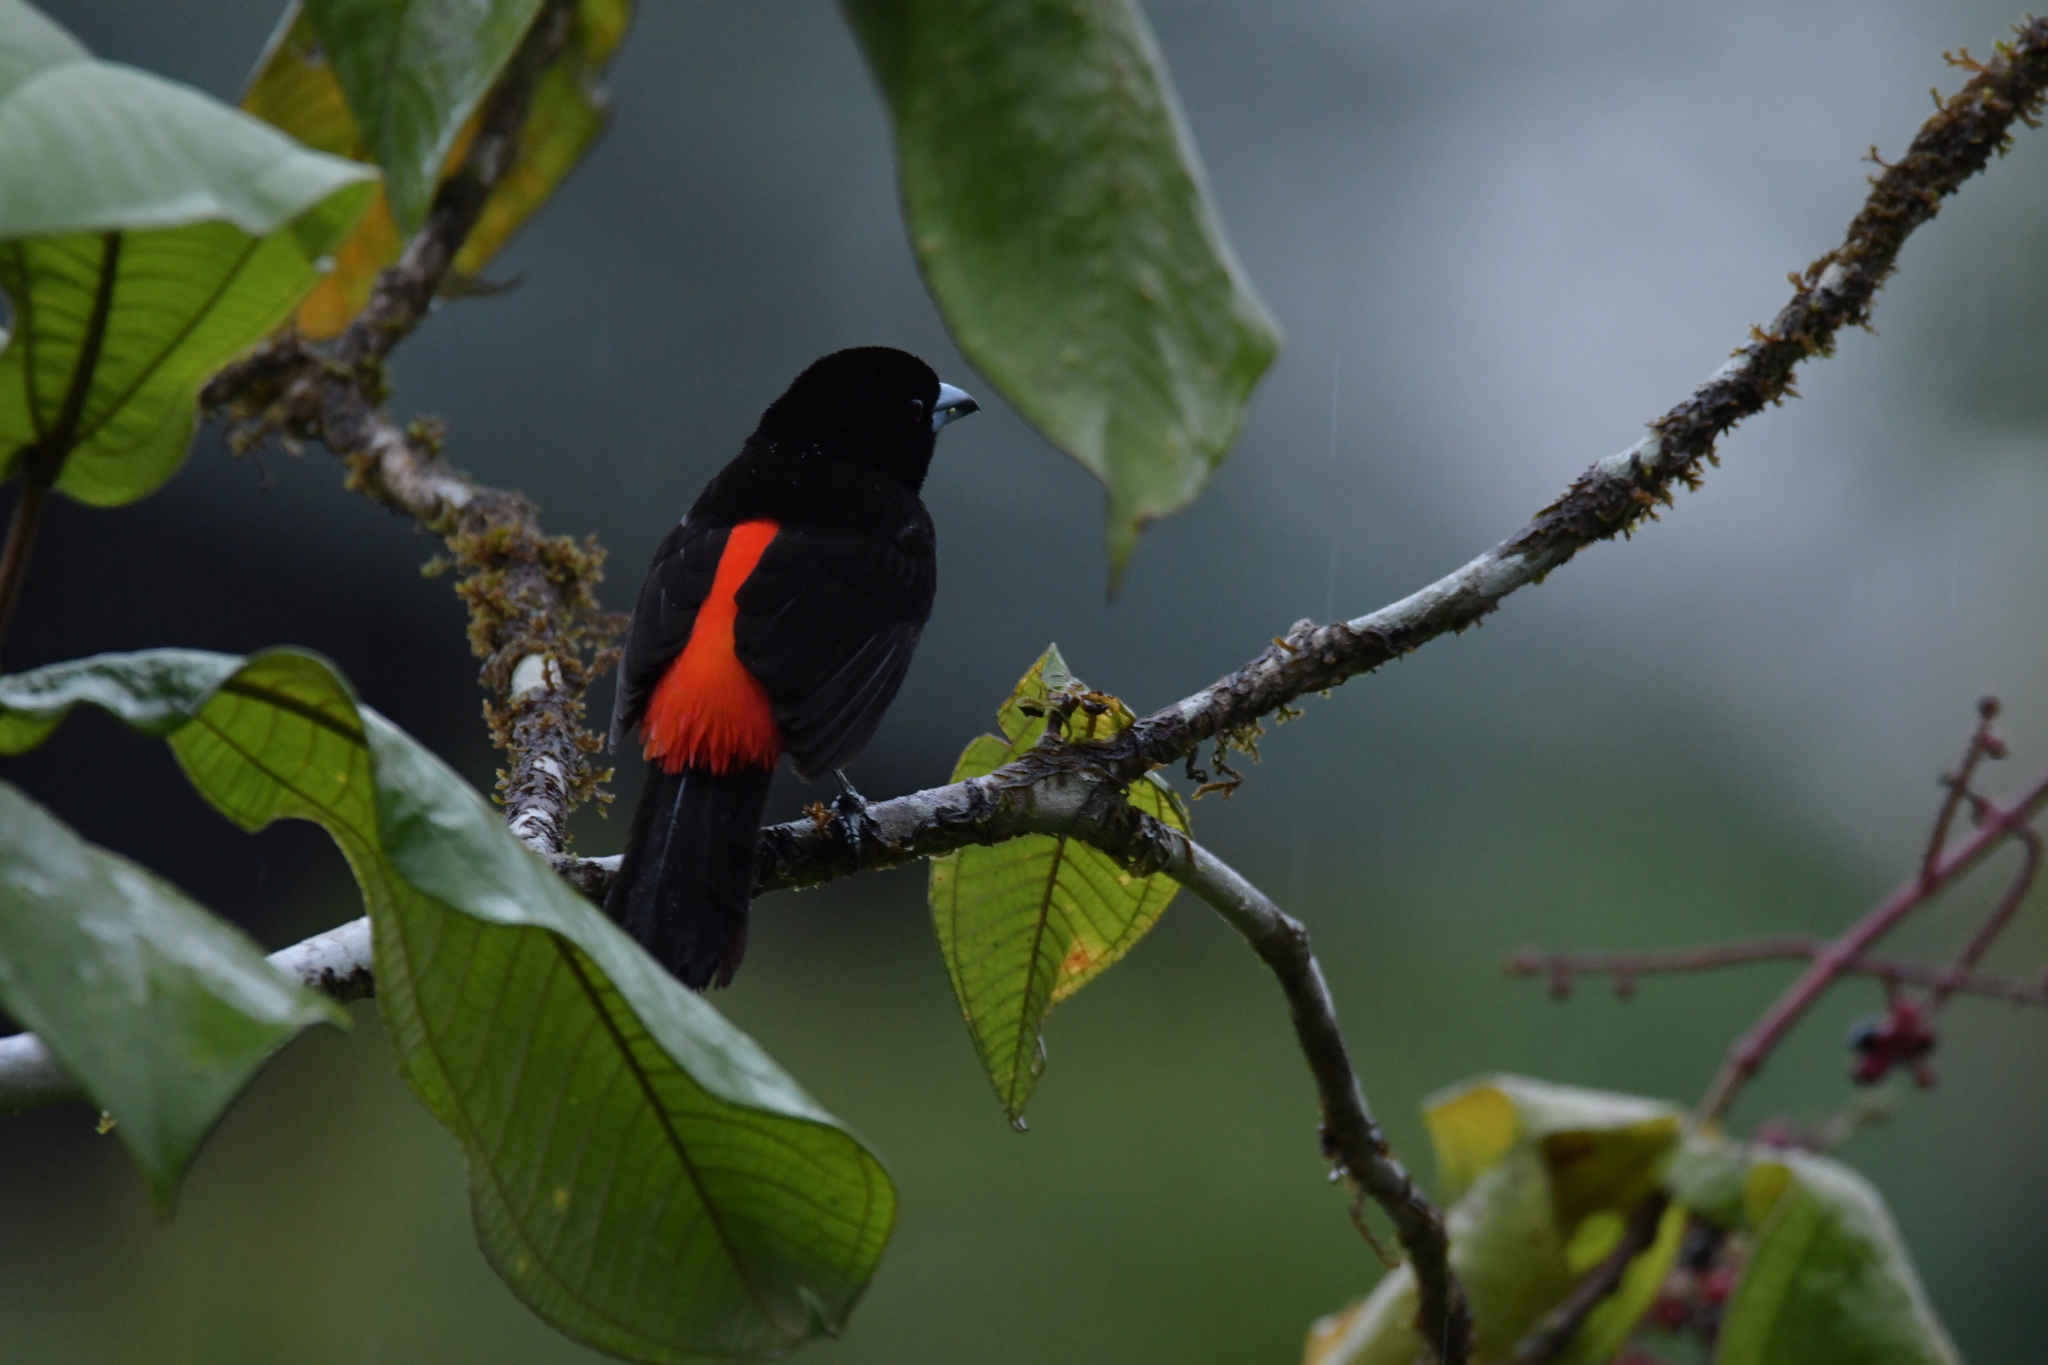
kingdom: Animalia
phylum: Chordata
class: Aves
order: Passeriformes
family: Thraupidae
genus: Ramphocelus
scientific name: Ramphocelus passerinii
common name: Passerini's tanager
